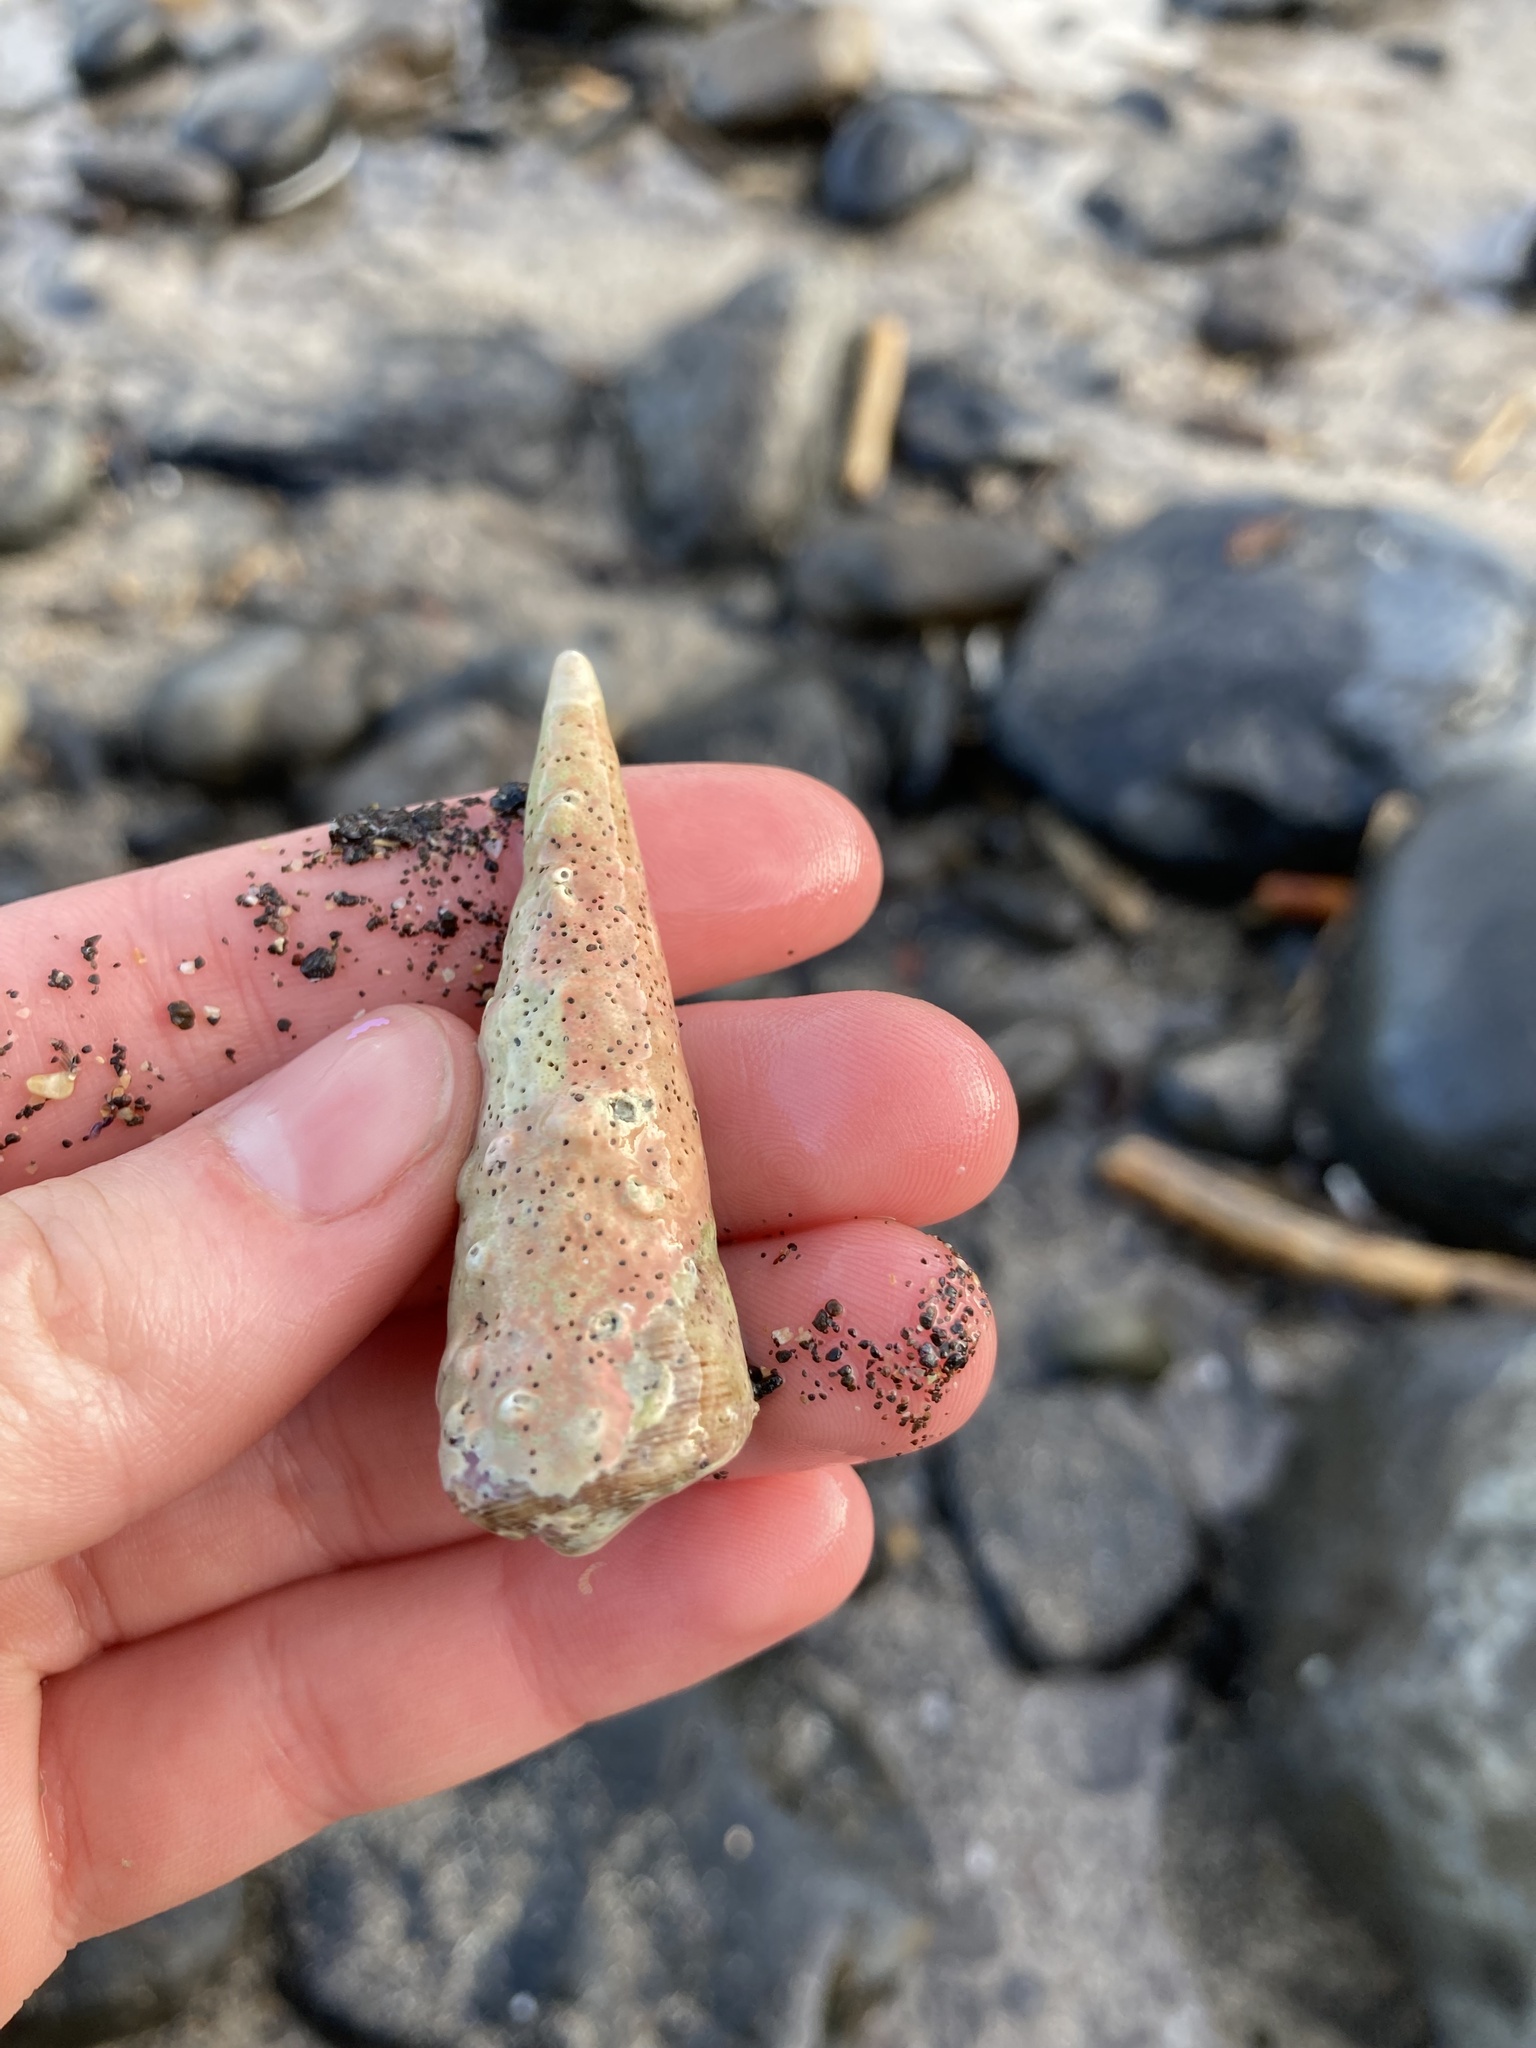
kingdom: Animalia
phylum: Mollusca
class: Gastropoda
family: Turritellidae
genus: Maoricolpus
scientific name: Maoricolpus roseus
